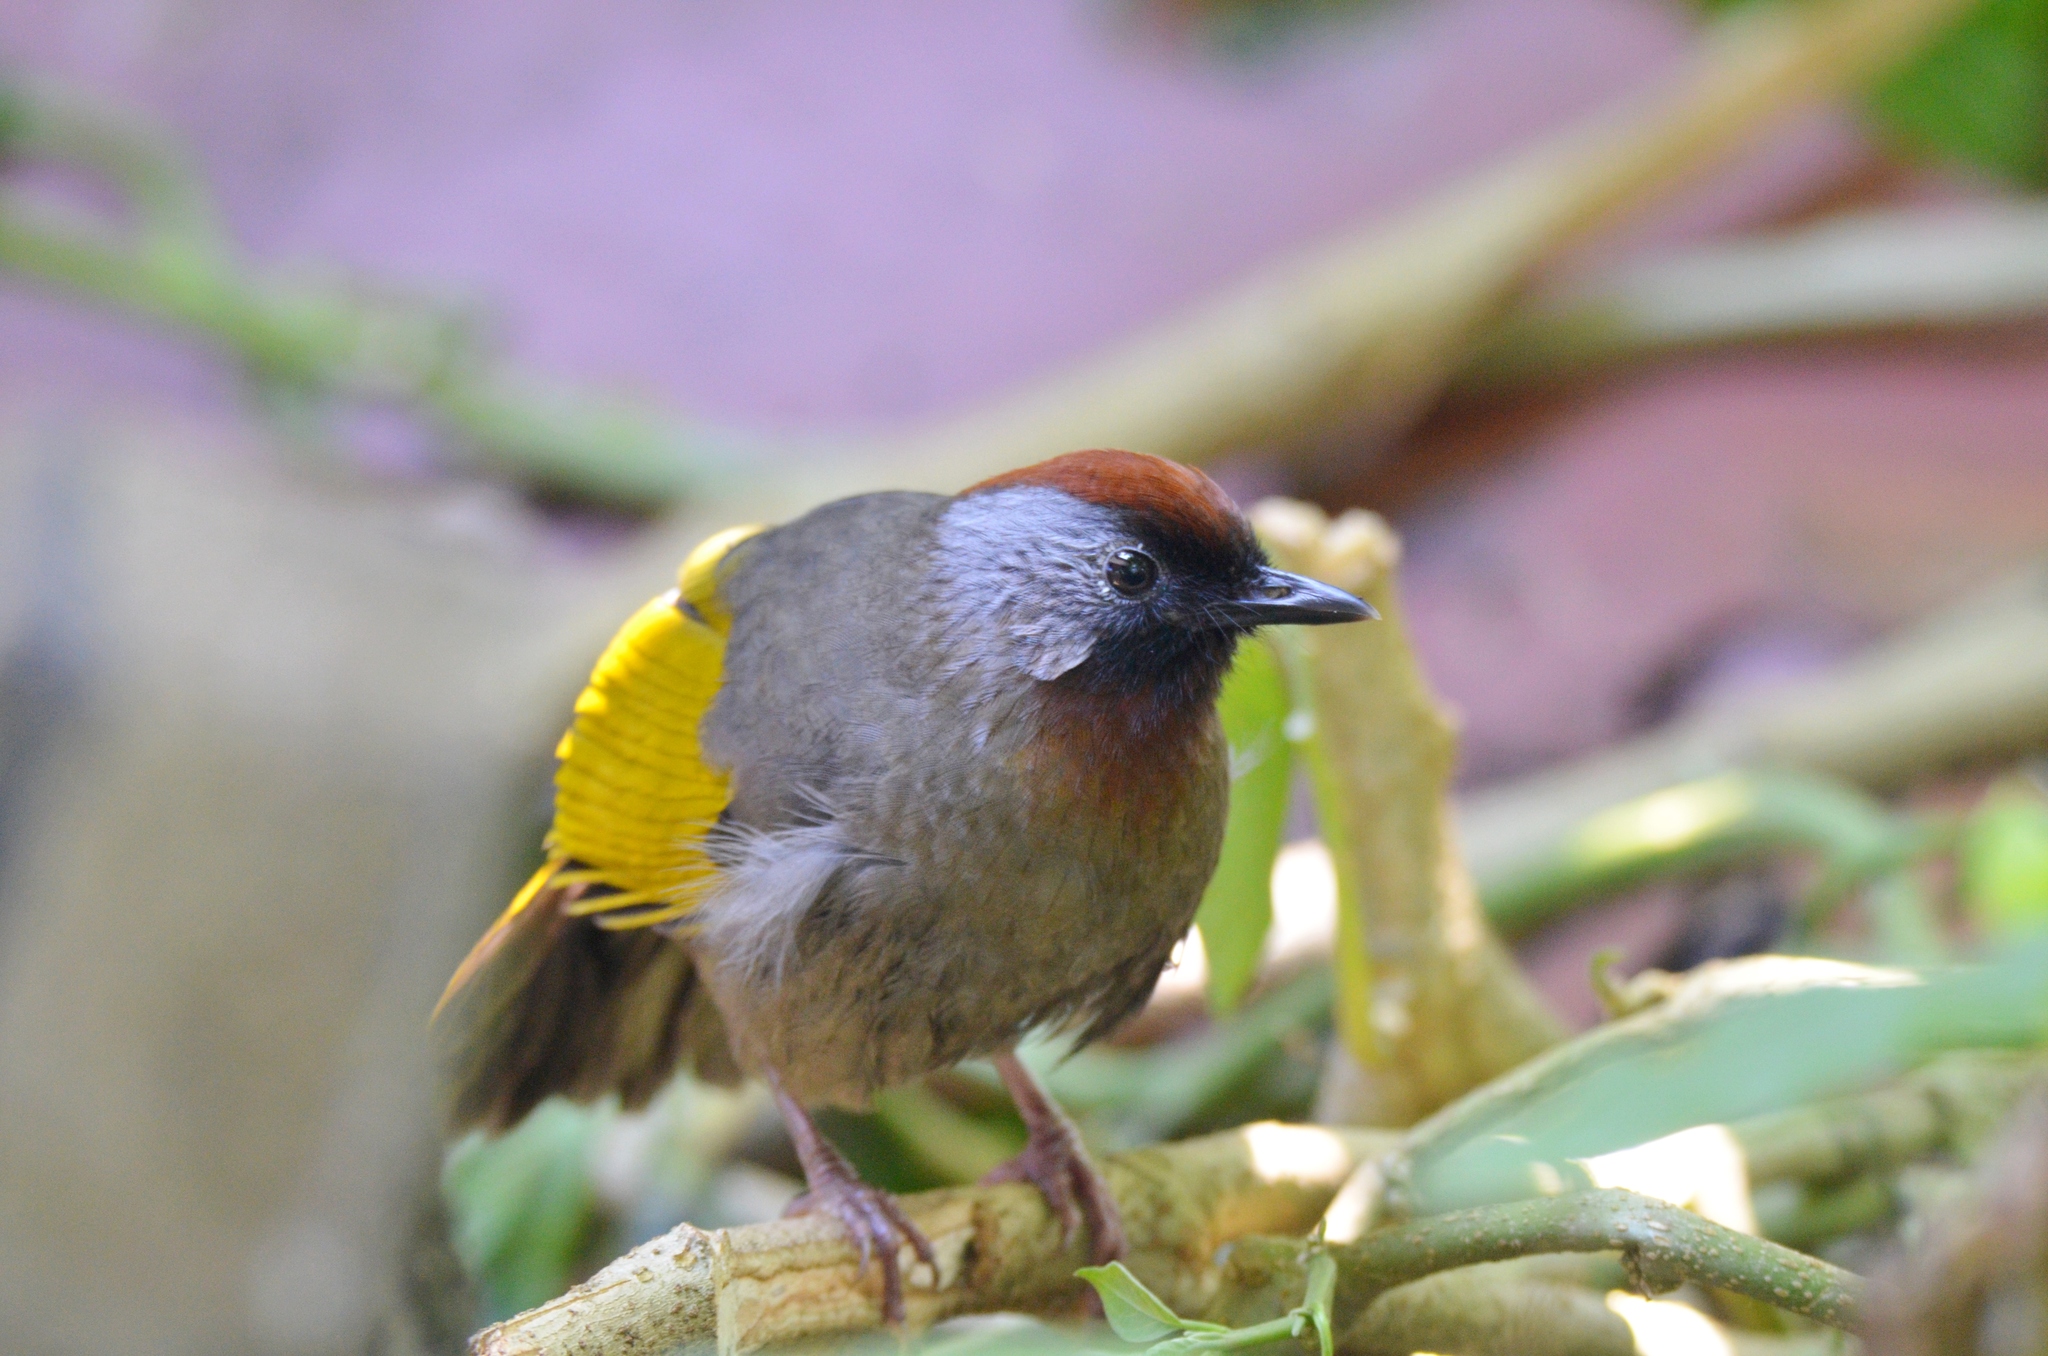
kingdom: Animalia
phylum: Chordata
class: Aves
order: Passeriformes
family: Leiothrichidae
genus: Trochalopteron
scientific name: Trochalopteron melanostigma
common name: Silver-eared laughingthrush
